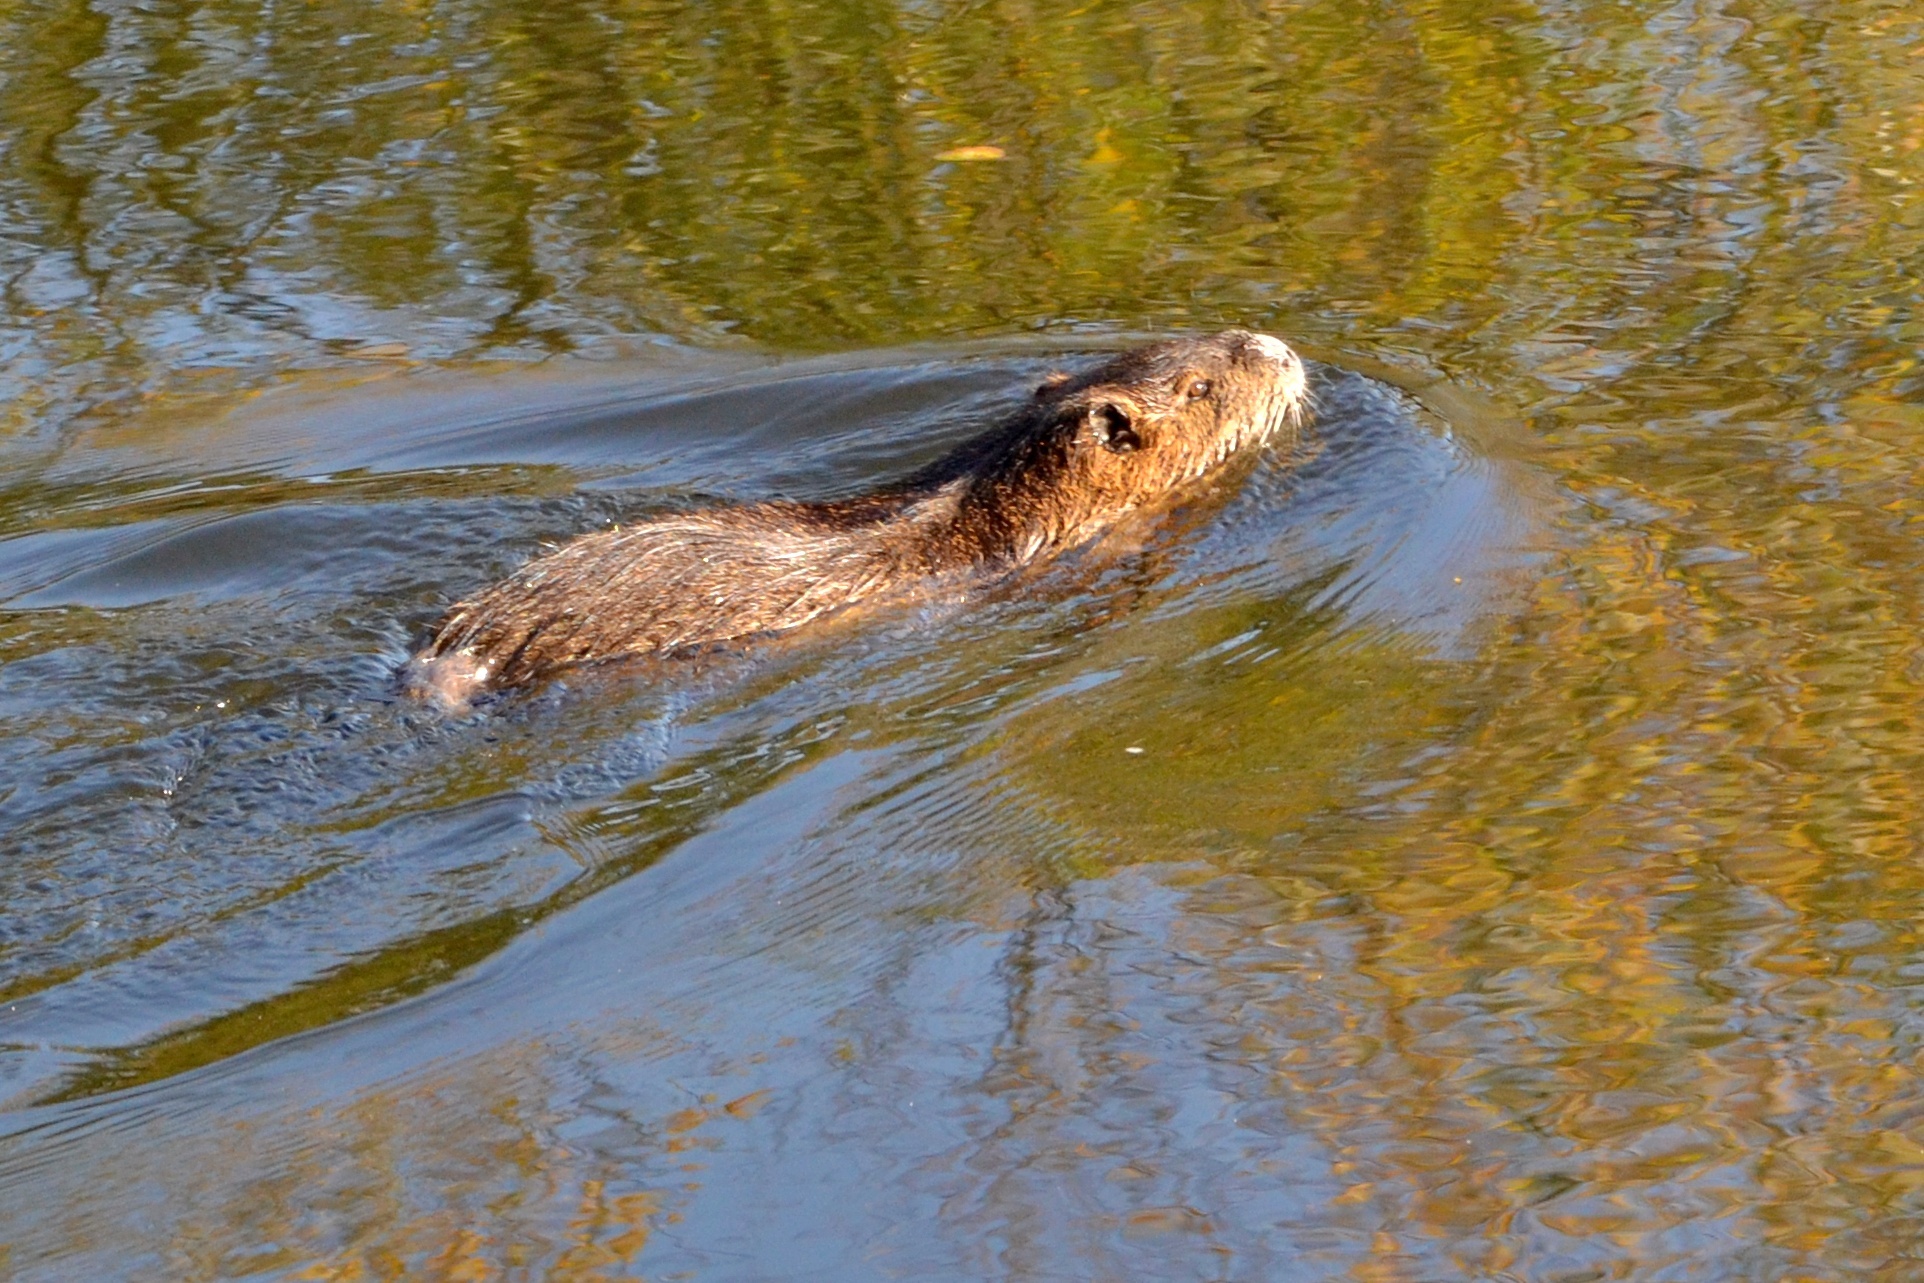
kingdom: Animalia
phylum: Chordata
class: Mammalia
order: Rodentia
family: Myocastoridae
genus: Myocastor
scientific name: Myocastor coypus
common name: Coypu
